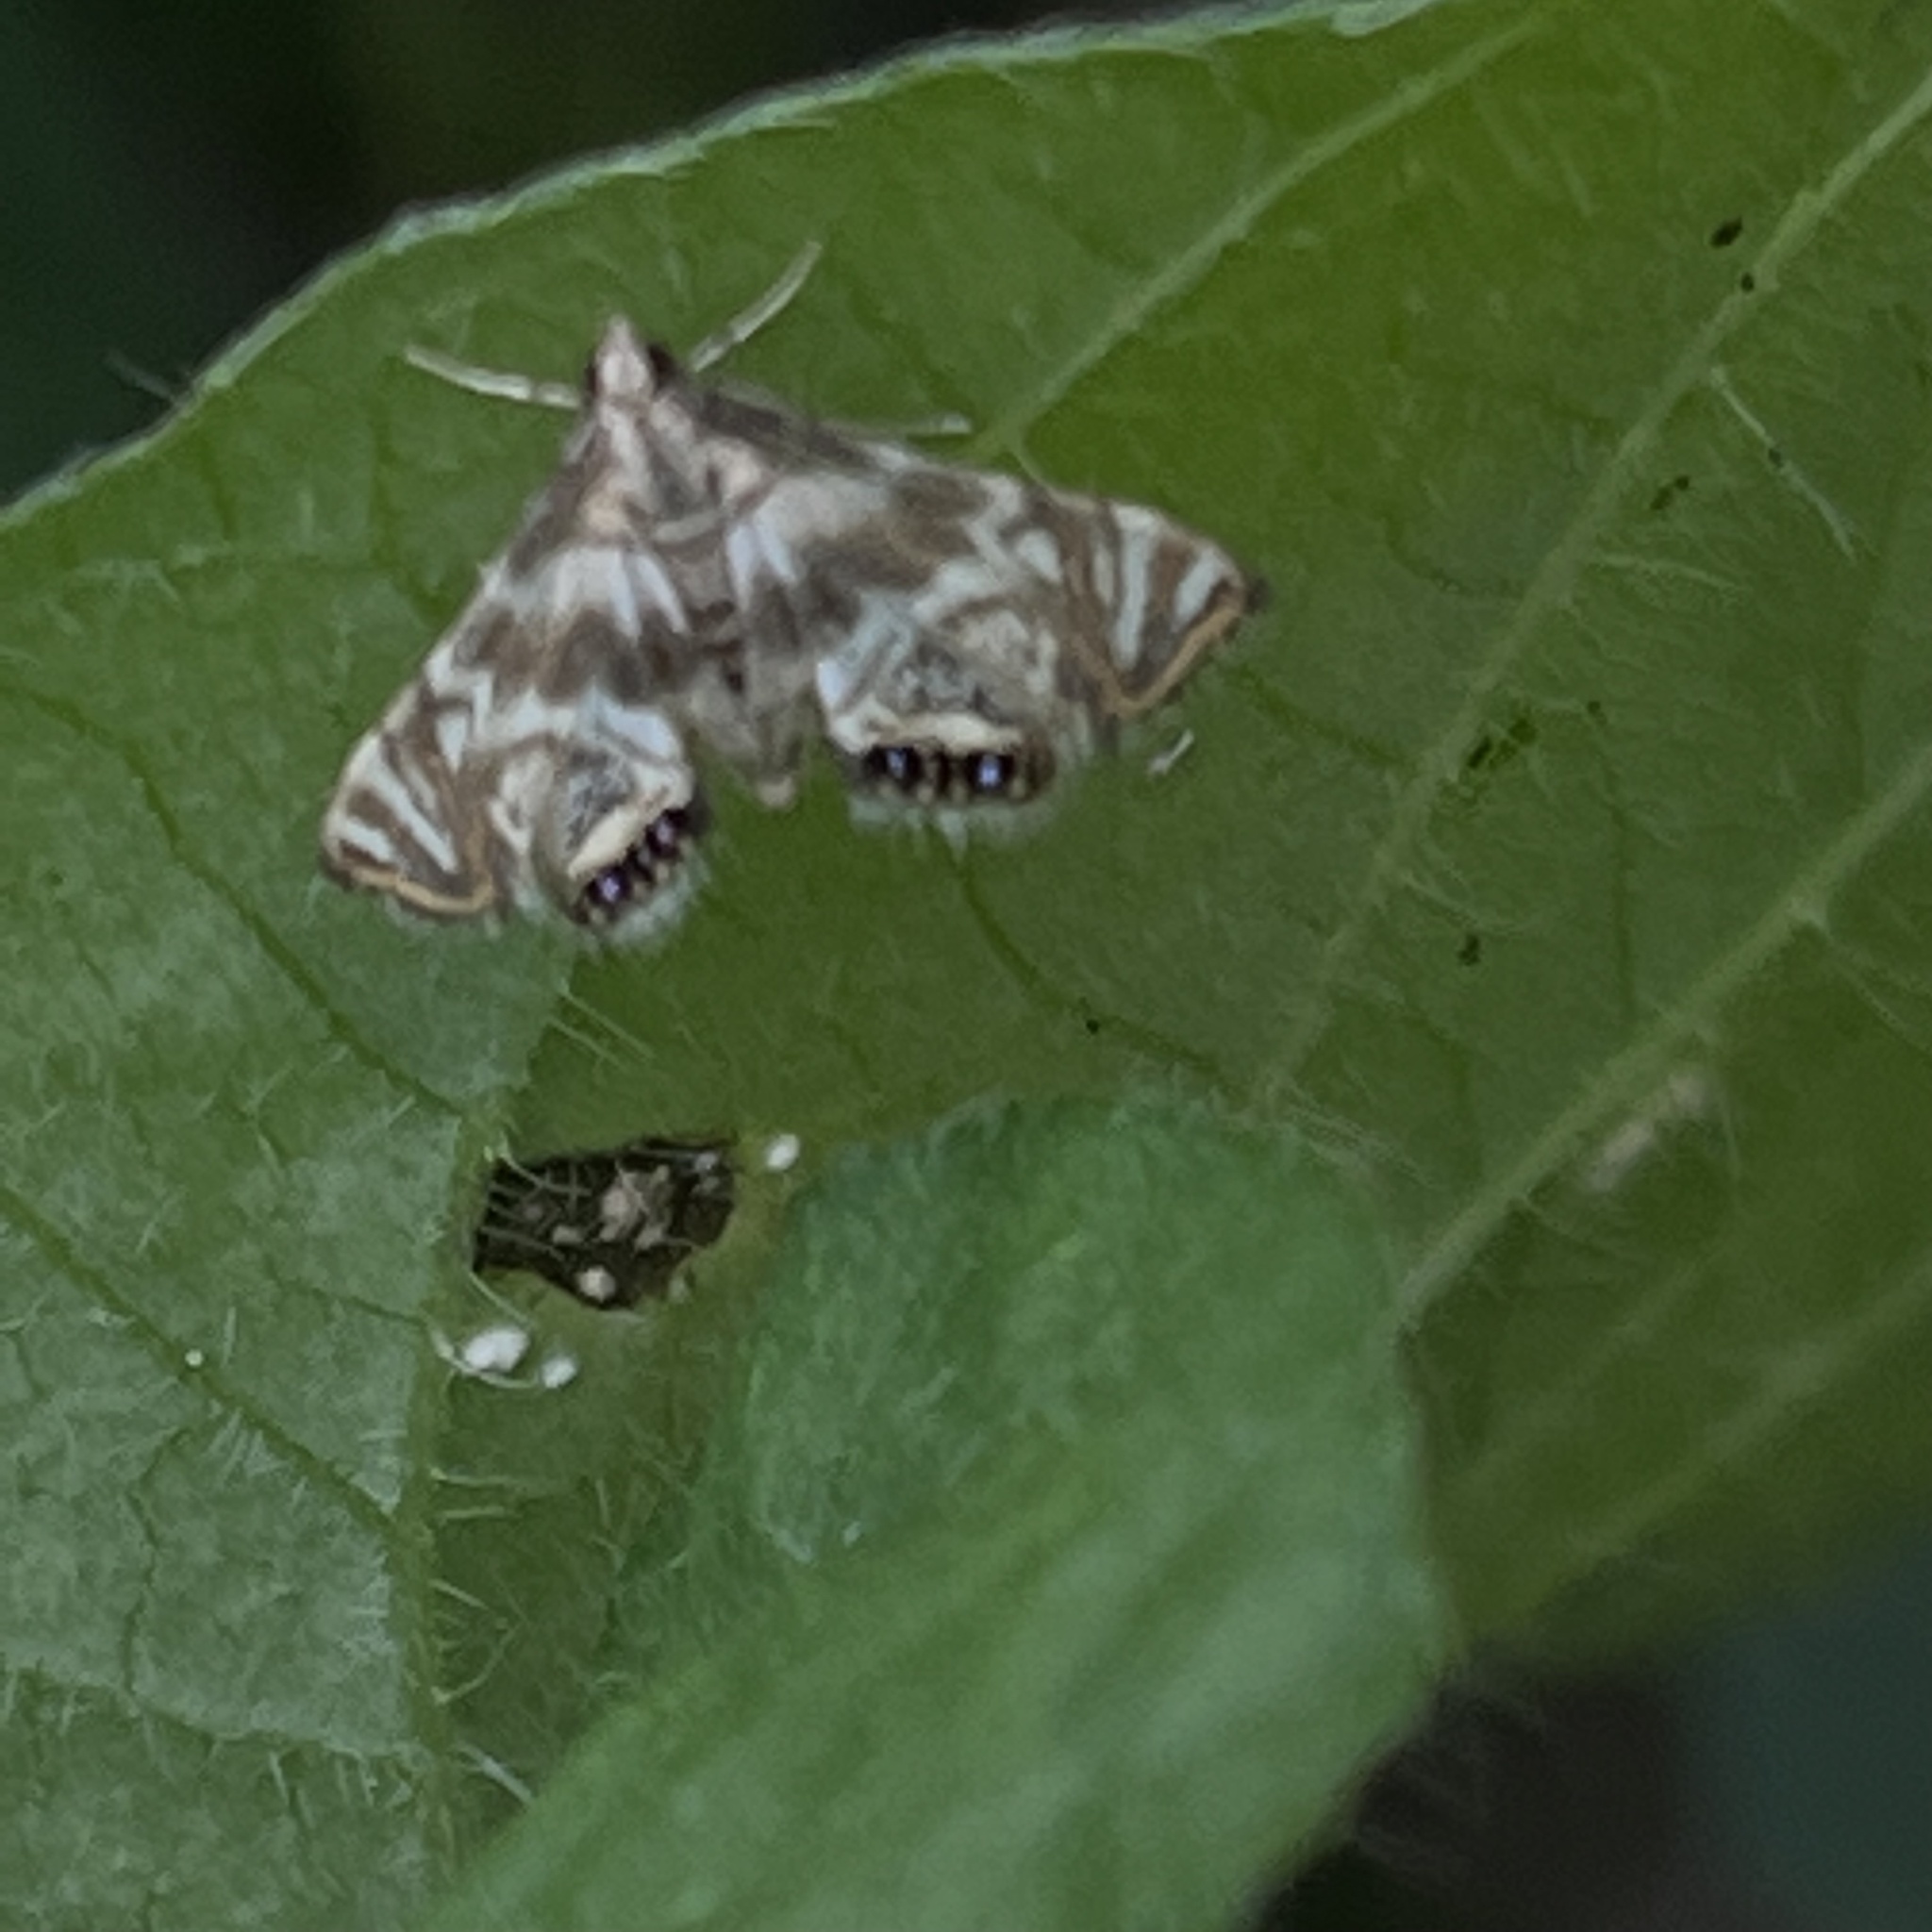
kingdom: Animalia
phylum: Arthropoda
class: Insecta
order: Lepidoptera
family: Crambidae
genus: Petrophila
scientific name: Petrophila canadensis
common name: Canadian petrophila
